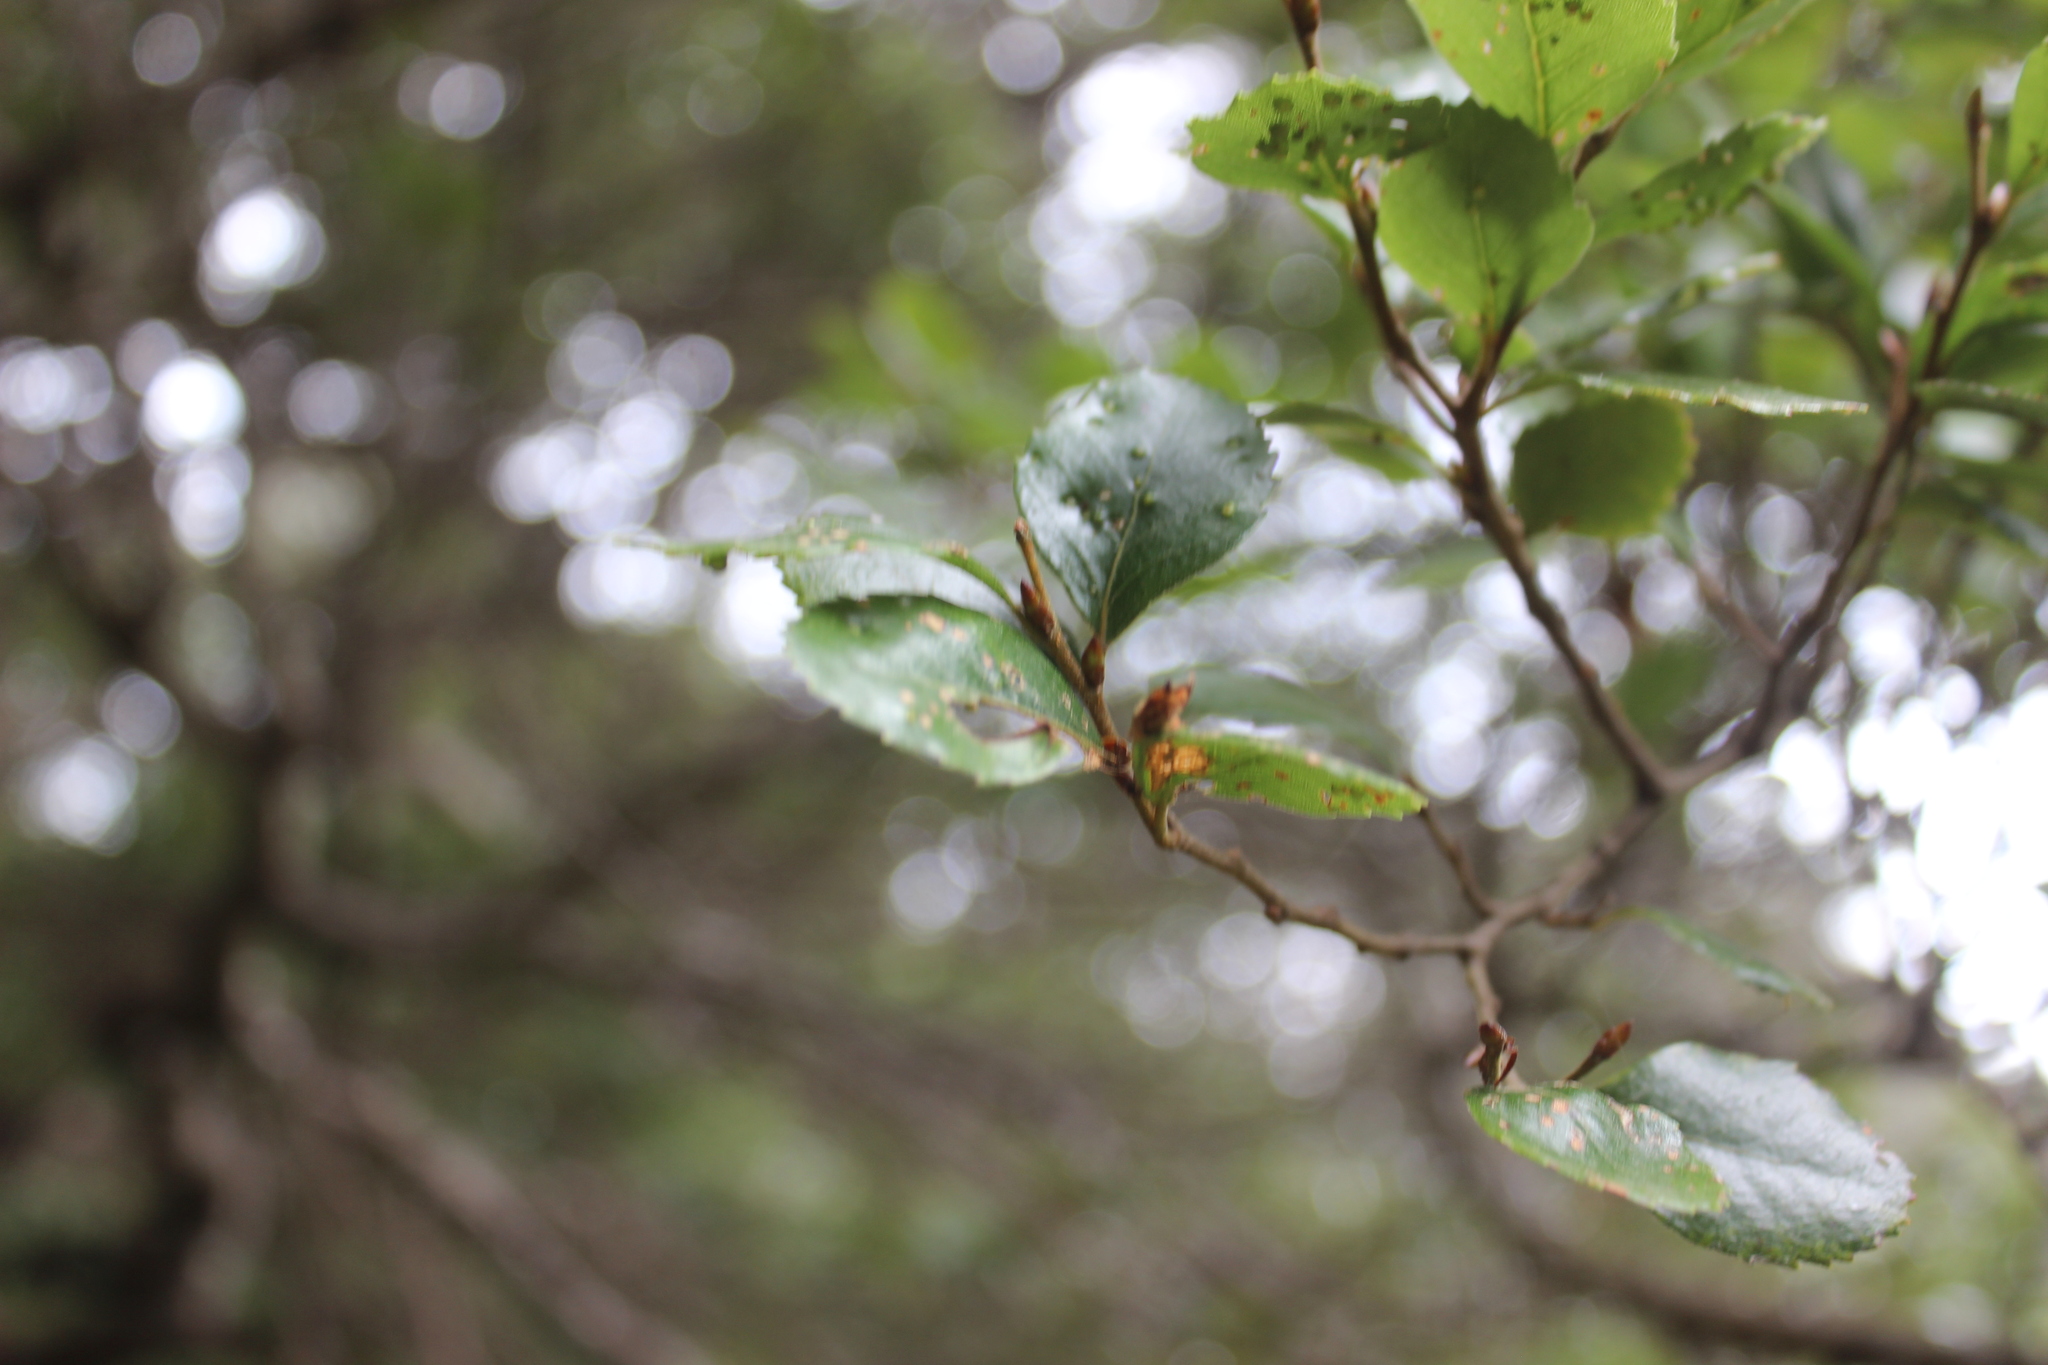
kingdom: Plantae
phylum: Tracheophyta
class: Magnoliopsida
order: Fagales
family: Nothofagaceae
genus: Nothofagus
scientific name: Nothofagus truncata
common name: Hard beech
